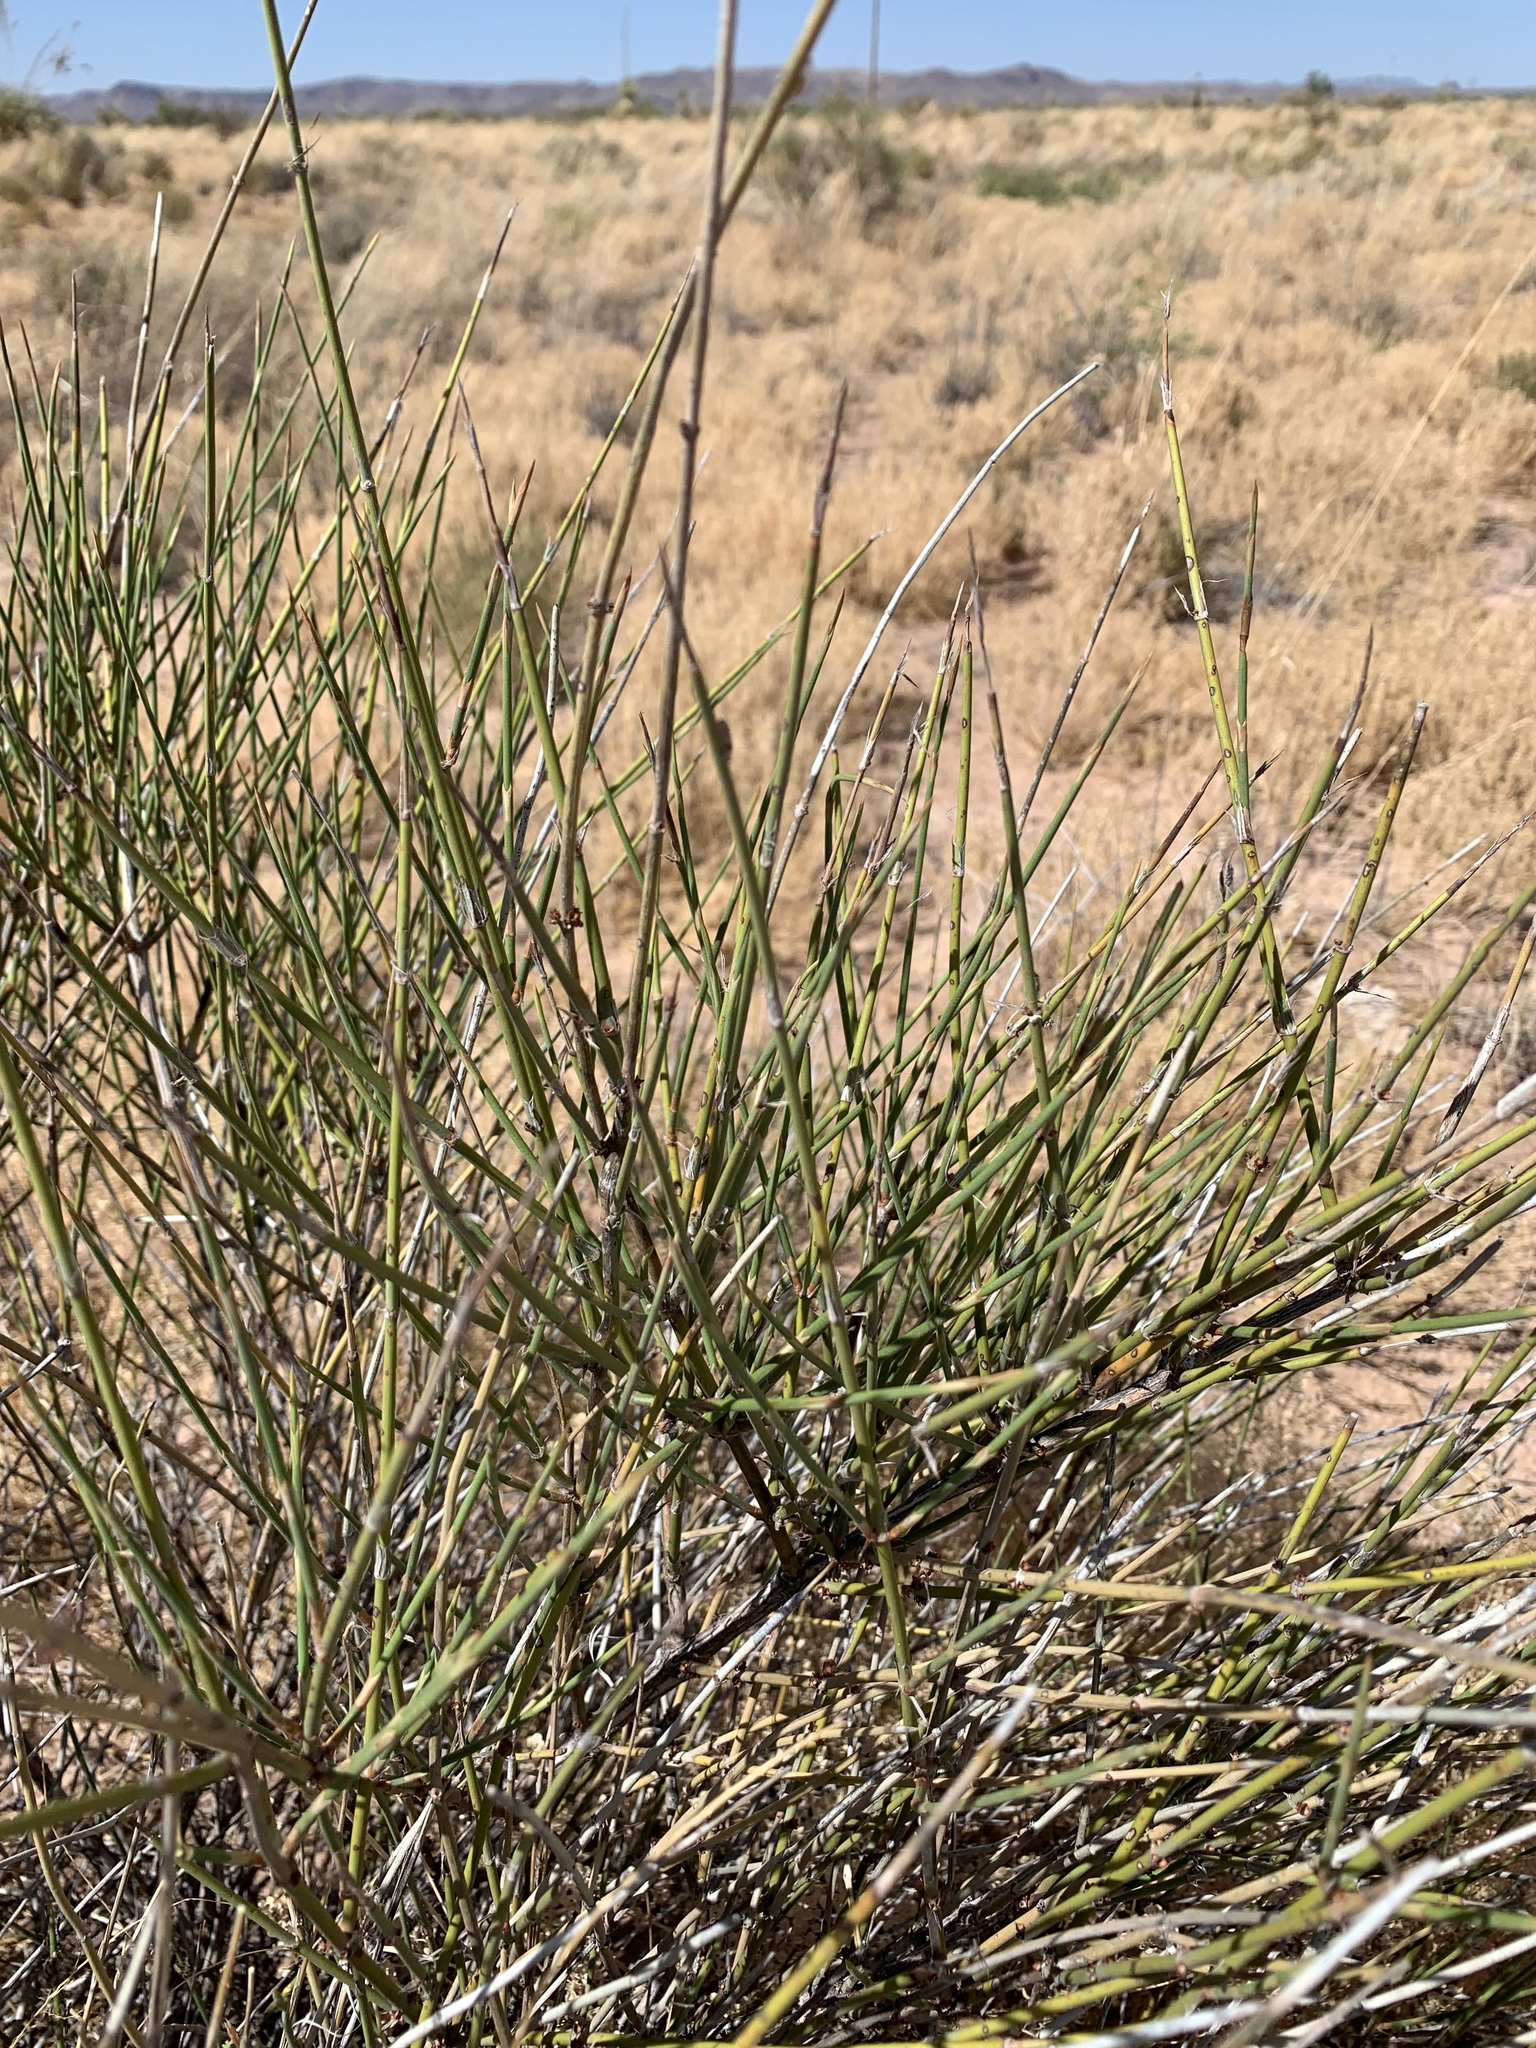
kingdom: Plantae
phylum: Tracheophyta
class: Gnetopsida
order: Ephedrales
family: Ephedraceae
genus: Ephedra
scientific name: Ephedra trifurca
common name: Mexican-tea
